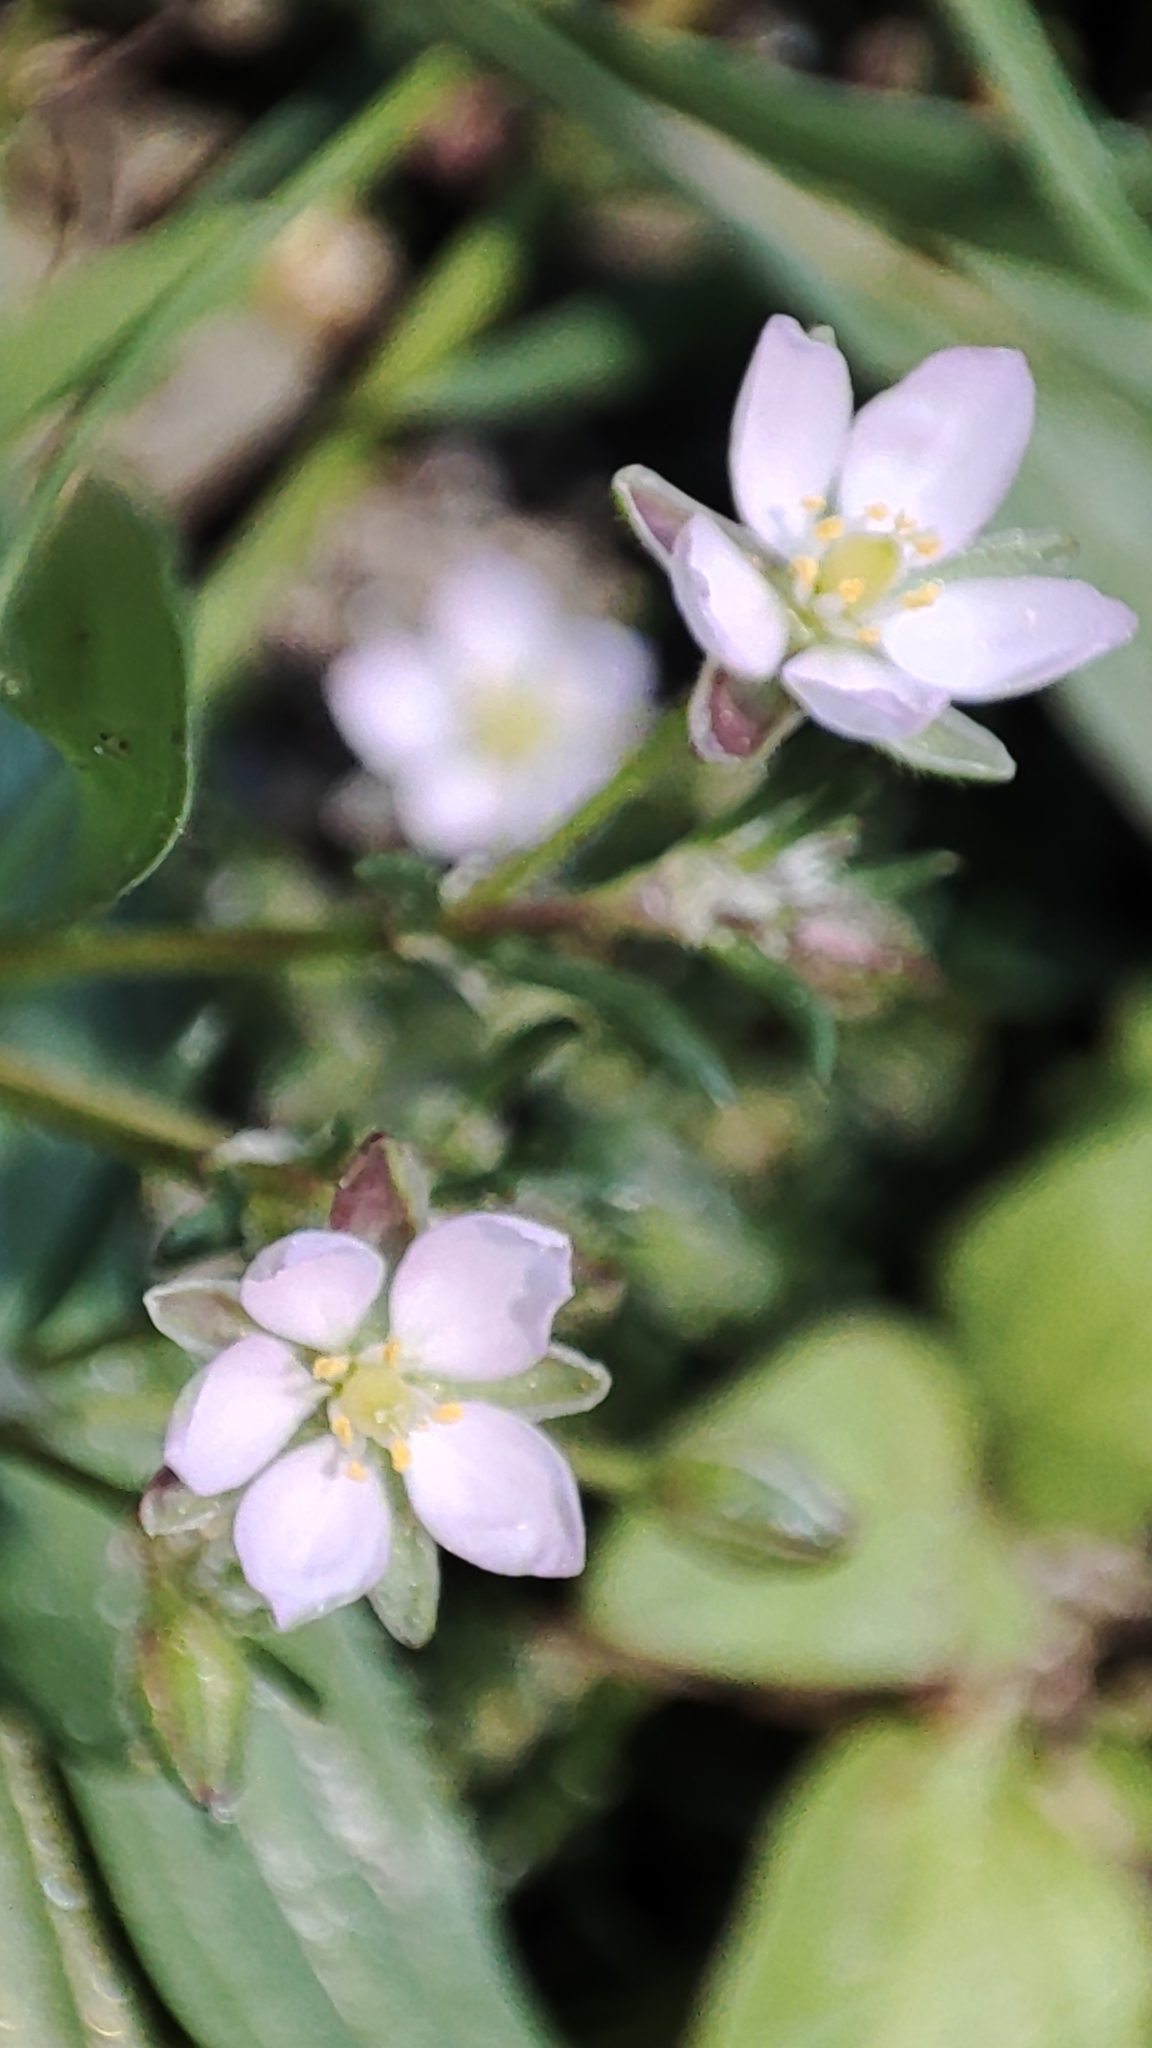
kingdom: Plantae
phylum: Tracheophyta
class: Magnoliopsida
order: Caryophyllales
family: Caryophyllaceae
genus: Spergularia
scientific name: Spergularia rubra
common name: Red sand-spurrey
